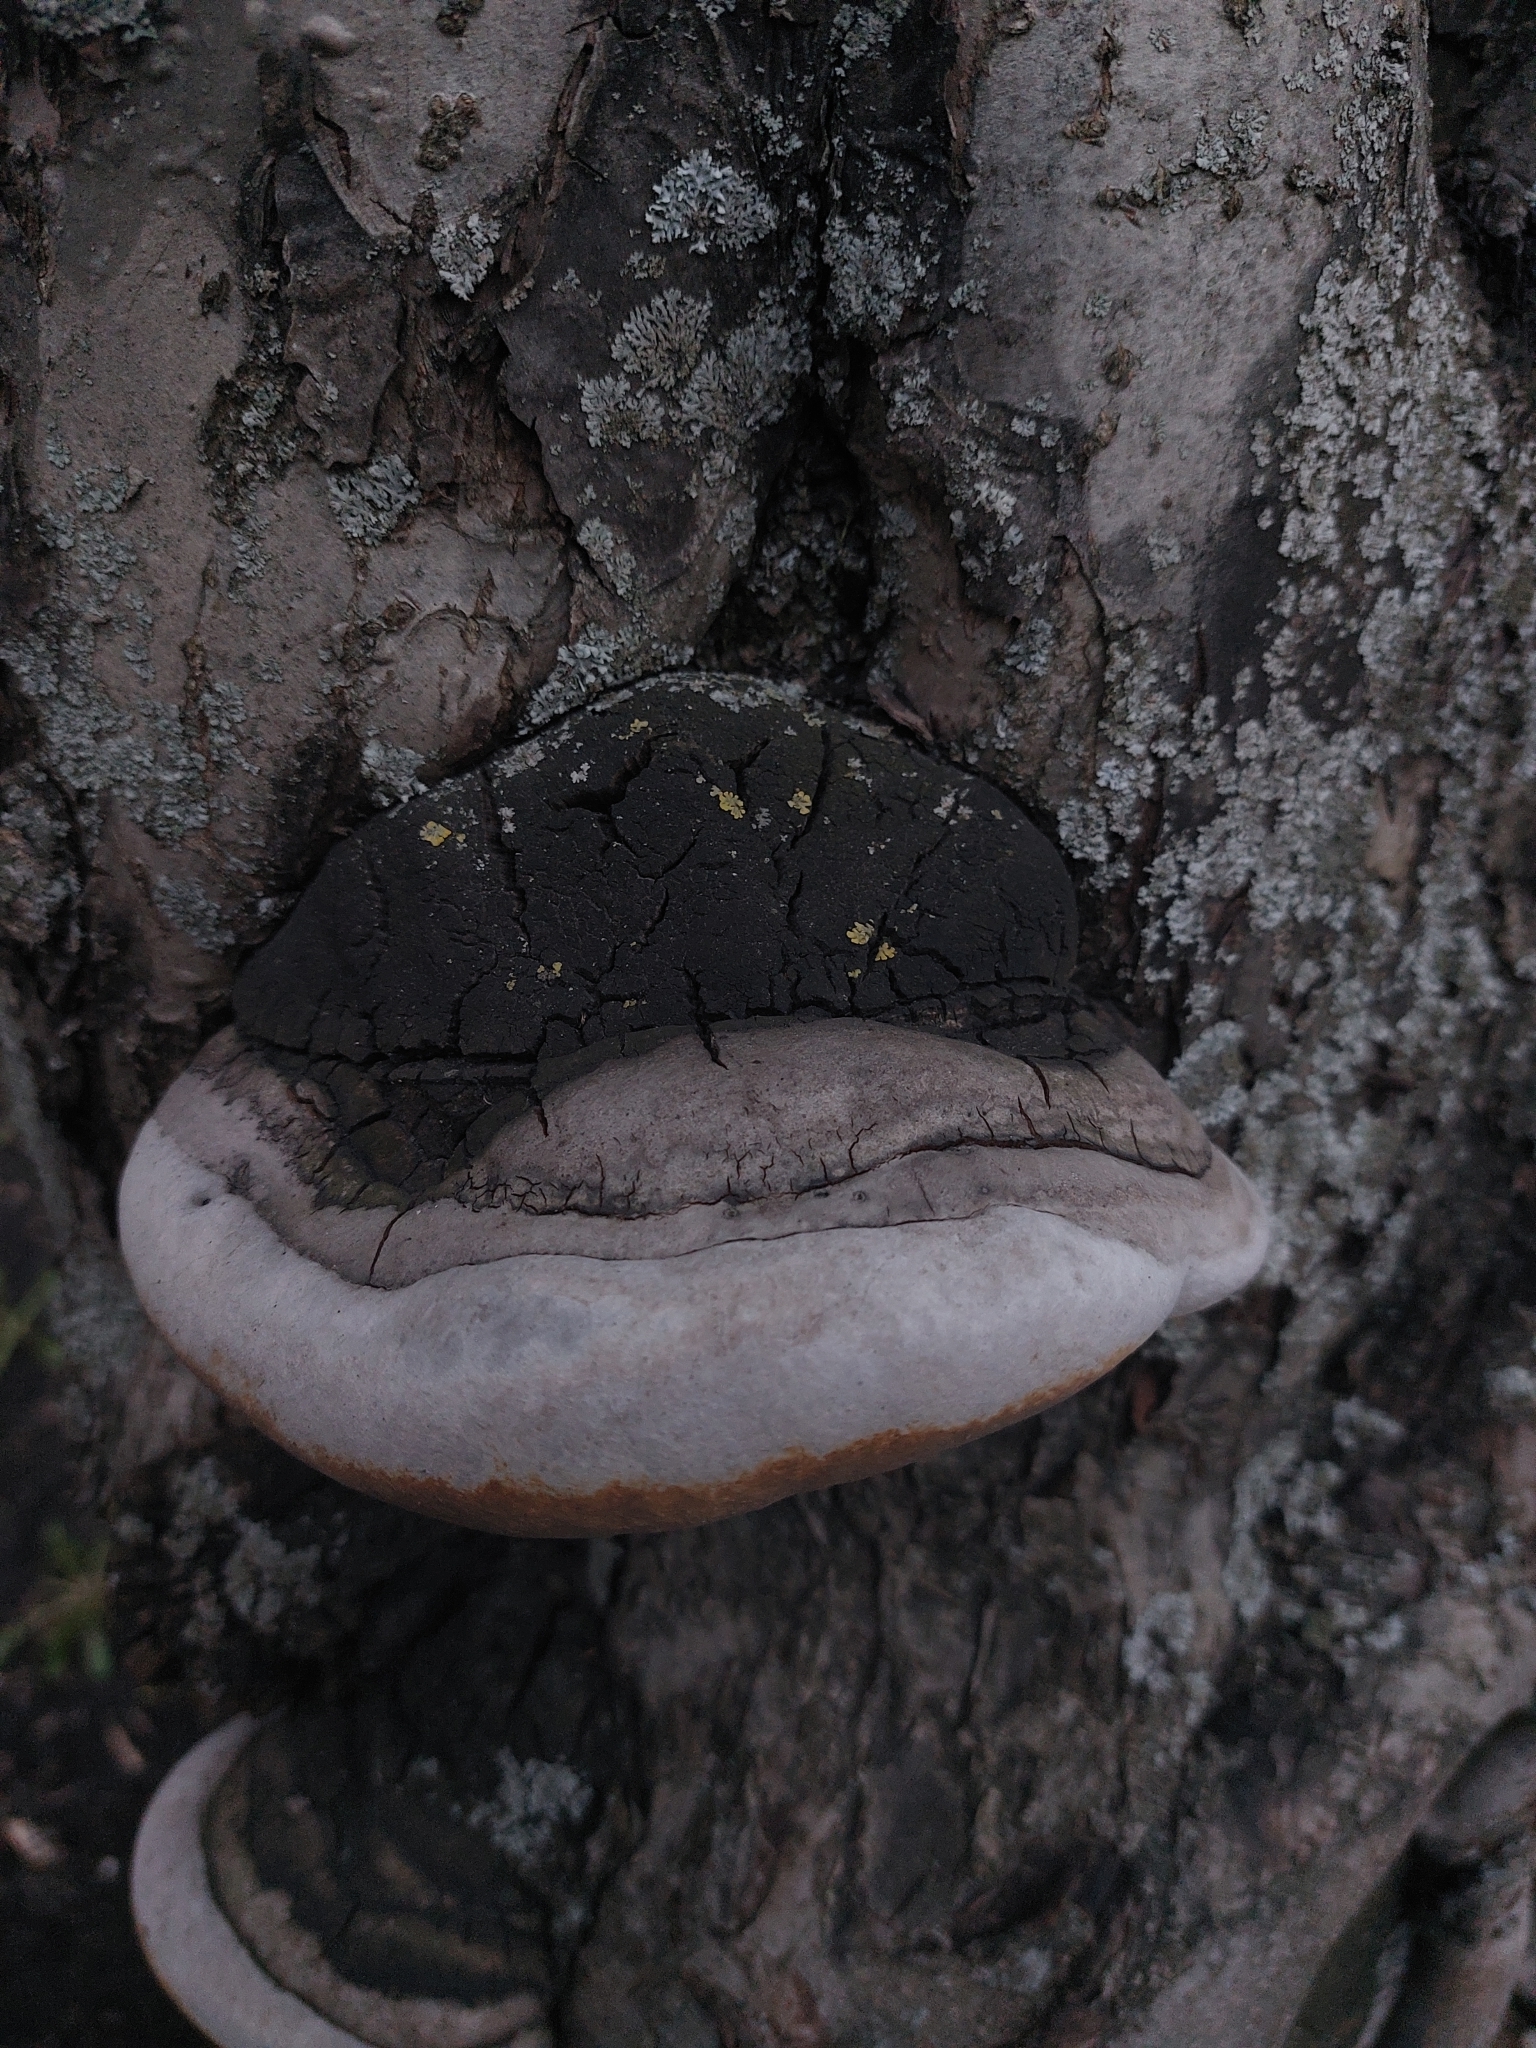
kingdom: Fungi
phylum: Basidiomycota
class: Agaricomycetes
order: Hymenochaetales
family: Hymenochaetaceae
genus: Phellinus
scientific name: Phellinus igniarius
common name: Willow bracket
